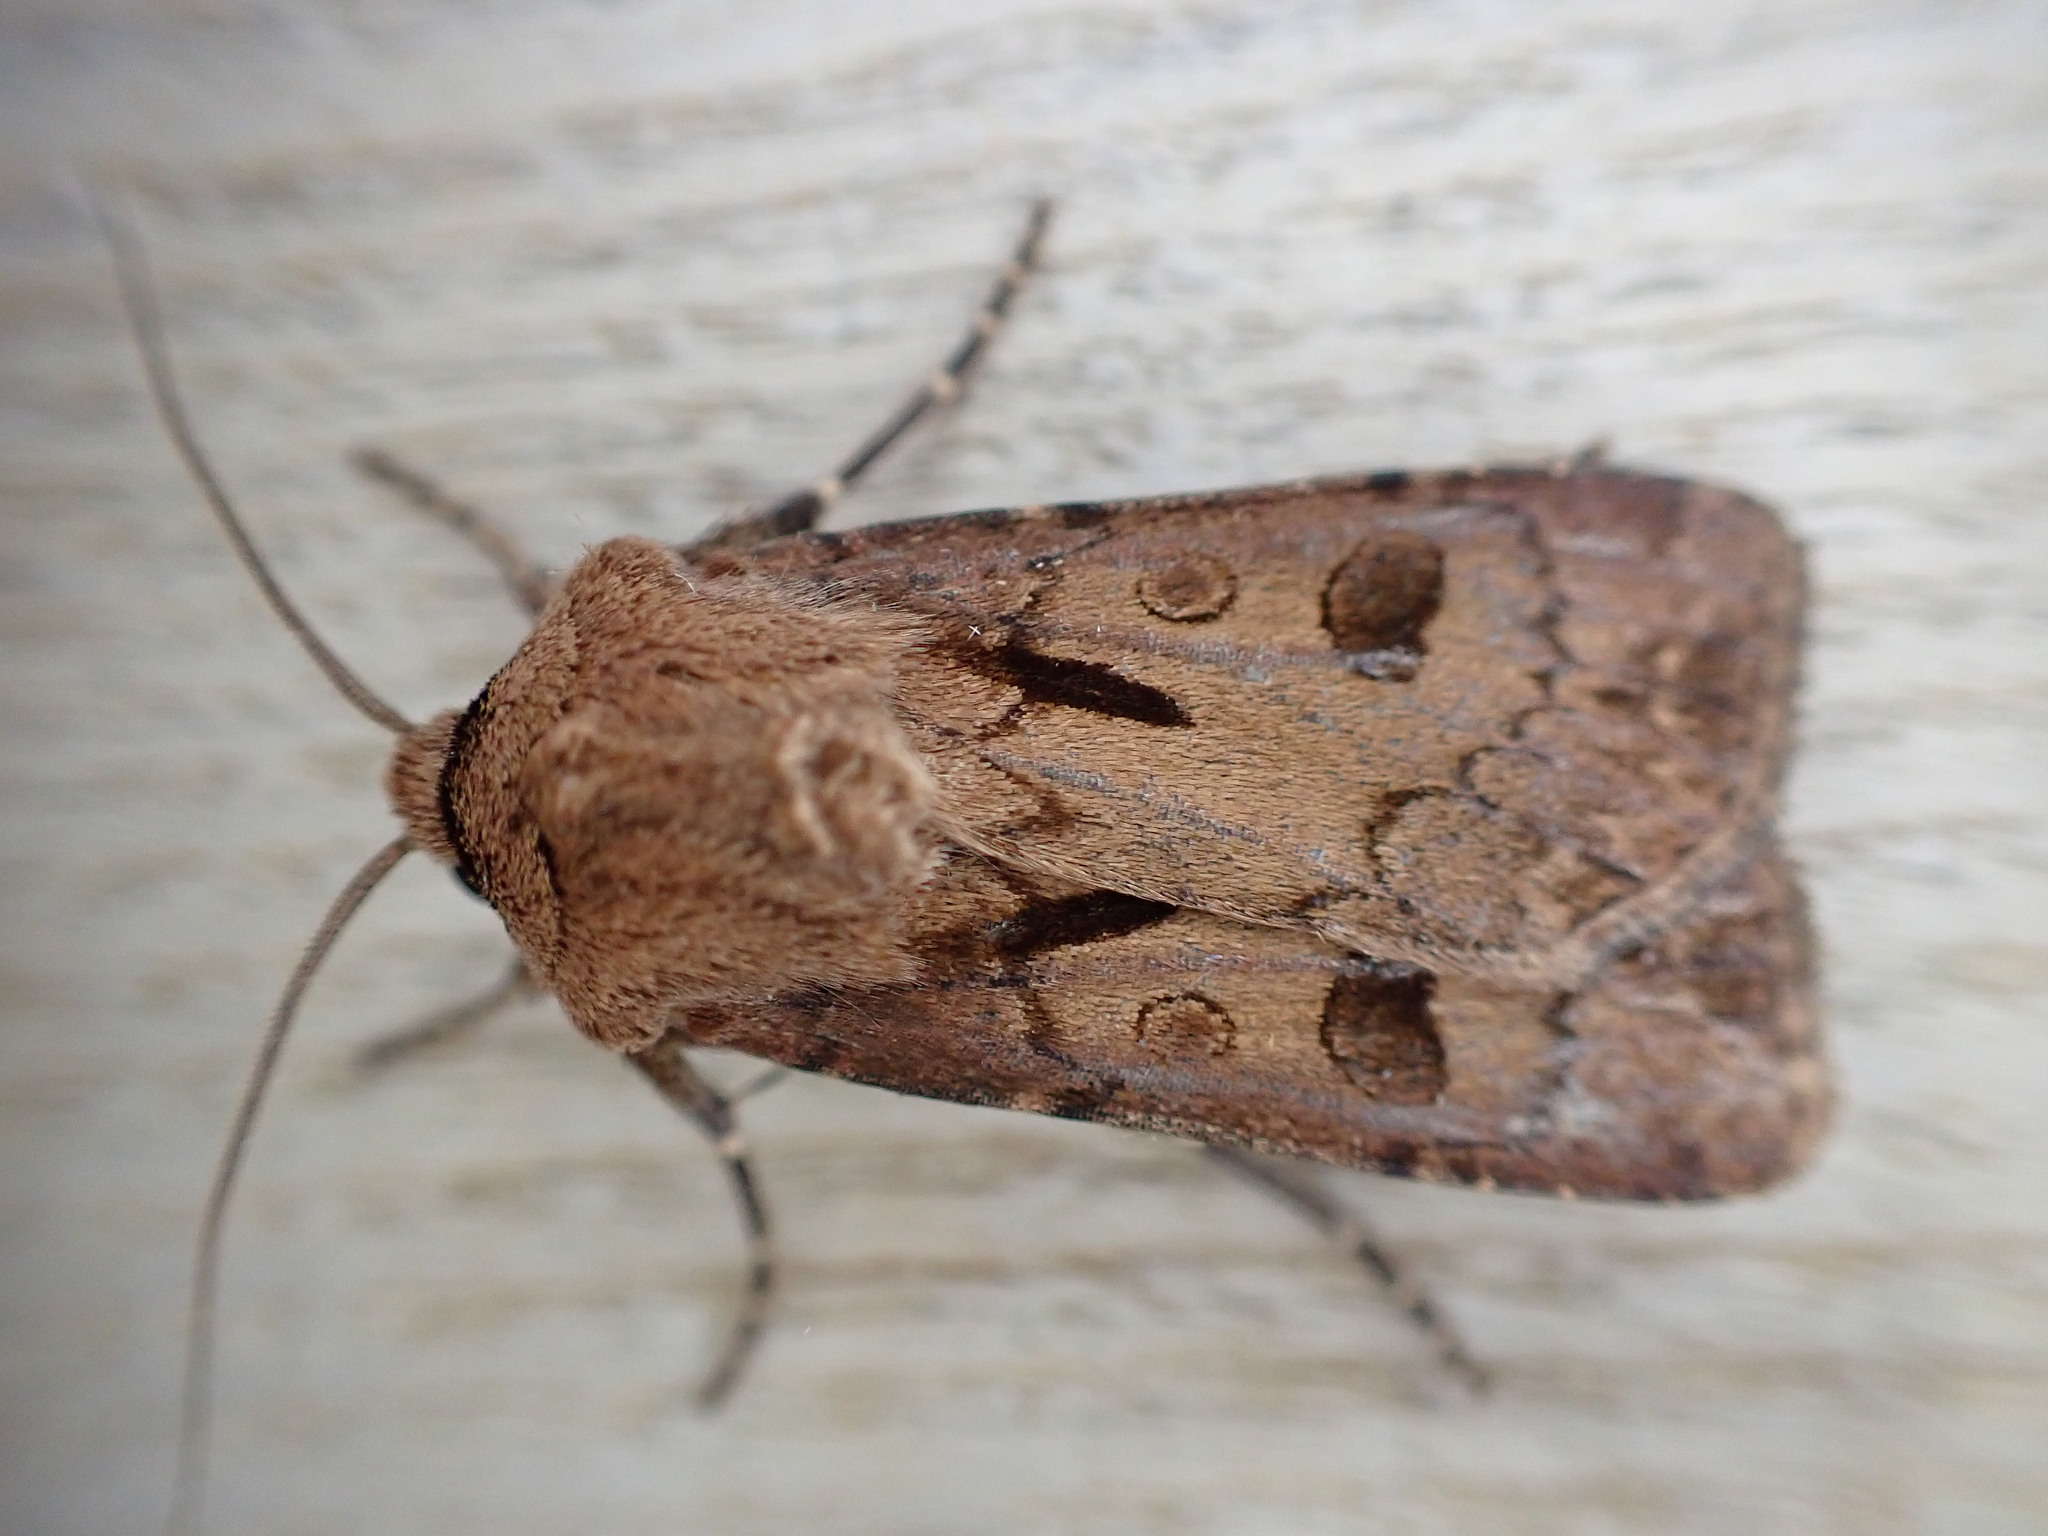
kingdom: Animalia
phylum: Arthropoda
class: Insecta
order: Lepidoptera
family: Noctuidae
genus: Agrotis
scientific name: Agrotis exclamationis
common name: Heart and dart
